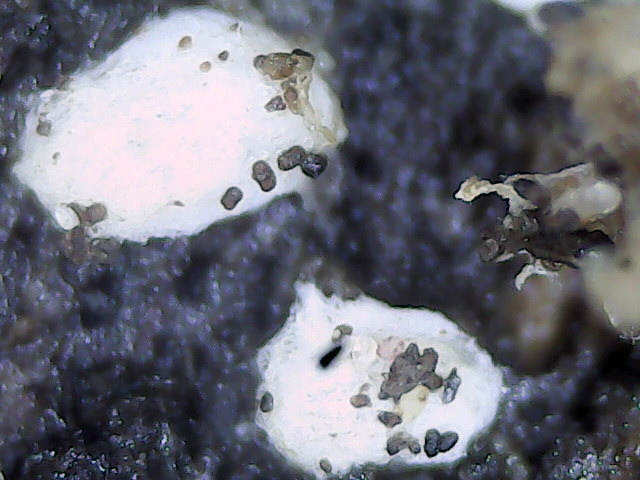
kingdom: Fungi
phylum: Basidiomycota
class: Agaricomycetes
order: Agaricales
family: Crepidotaceae
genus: Crepidotus
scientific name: Crepidotus albatus
